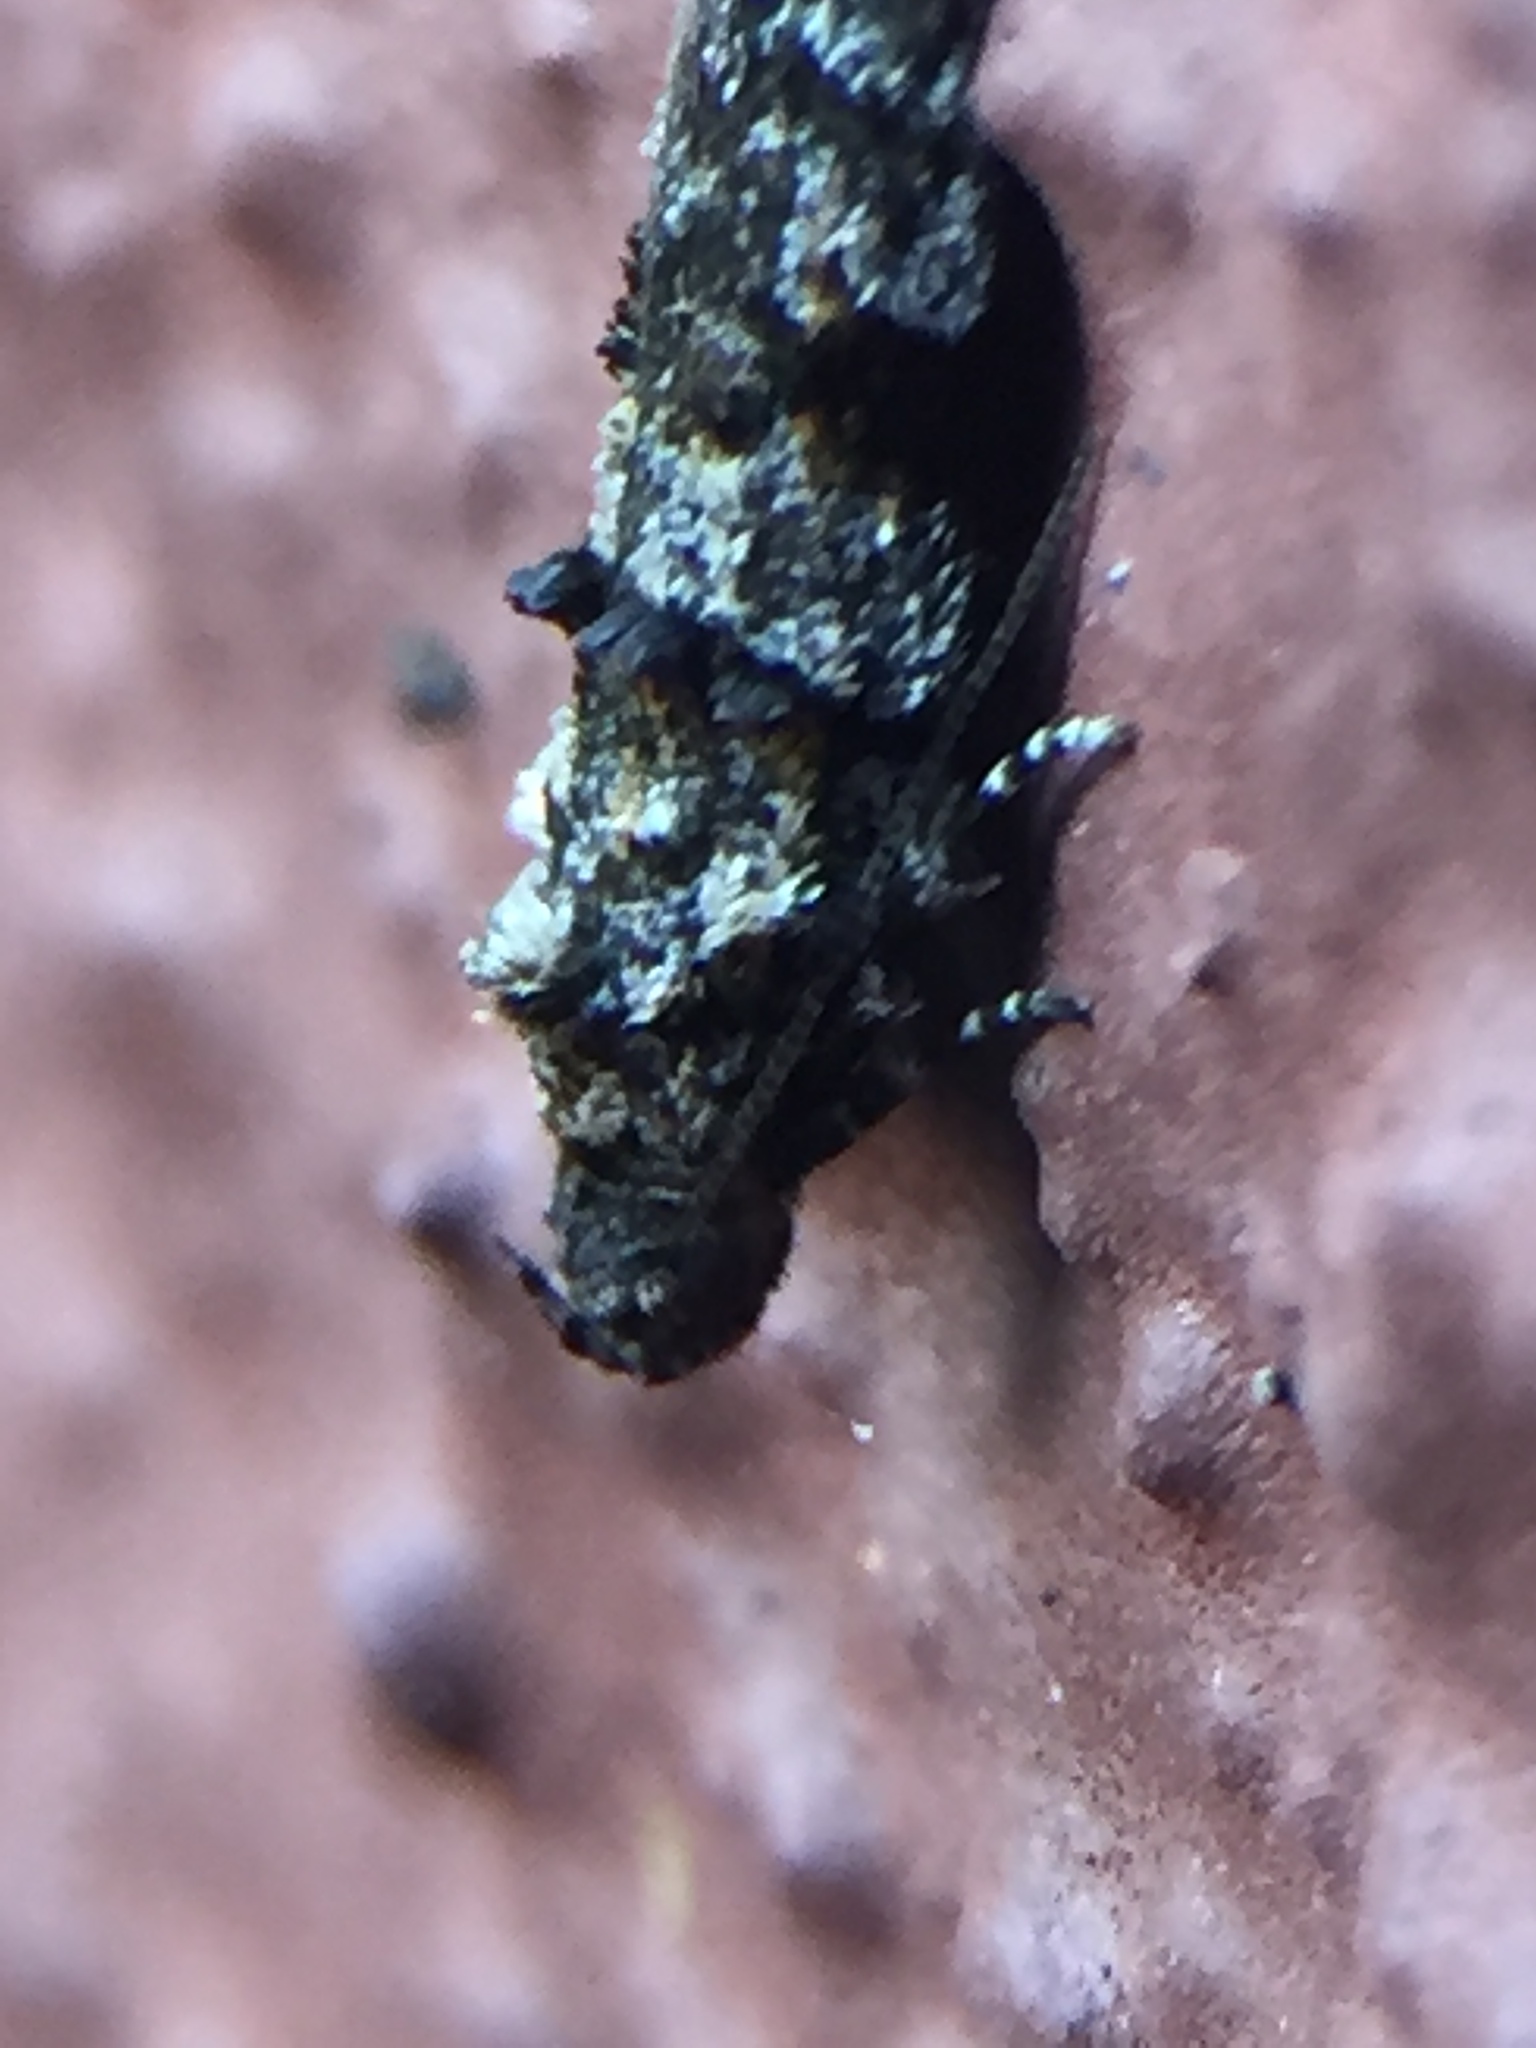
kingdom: Animalia
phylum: Arthropoda
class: Insecta
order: Lepidoptera
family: Oecophoridae
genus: Izatha
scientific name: Izatha minimira
